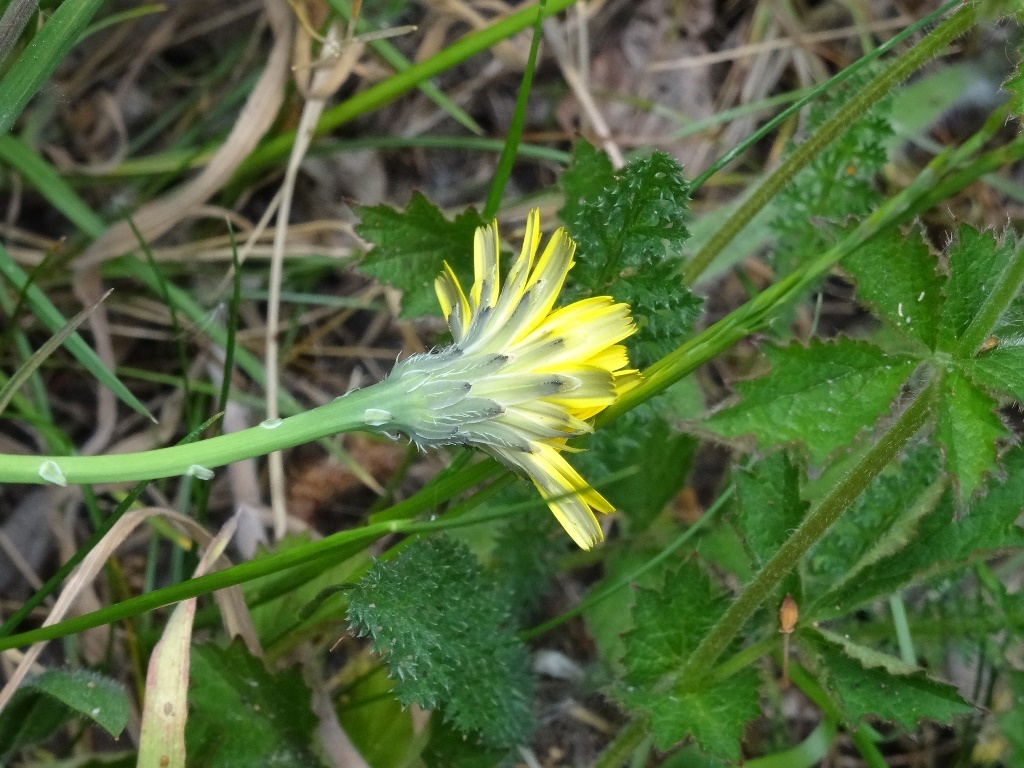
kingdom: Plantae
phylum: Tracheophyta
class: Magnoliopsida
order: Asterales
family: Asteraceae
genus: Hypochaeris
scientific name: Hypochaeris radicata
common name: Flatweed
